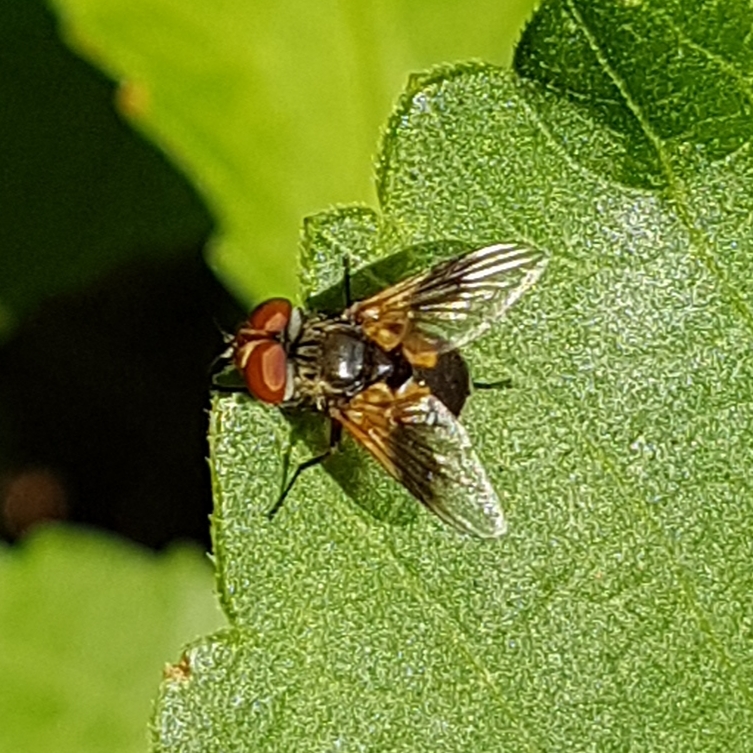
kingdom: Animalia
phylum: Arthropoda
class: Insecta
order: Diptera
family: Tachinidae
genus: Ectophasia
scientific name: Ectophasia
